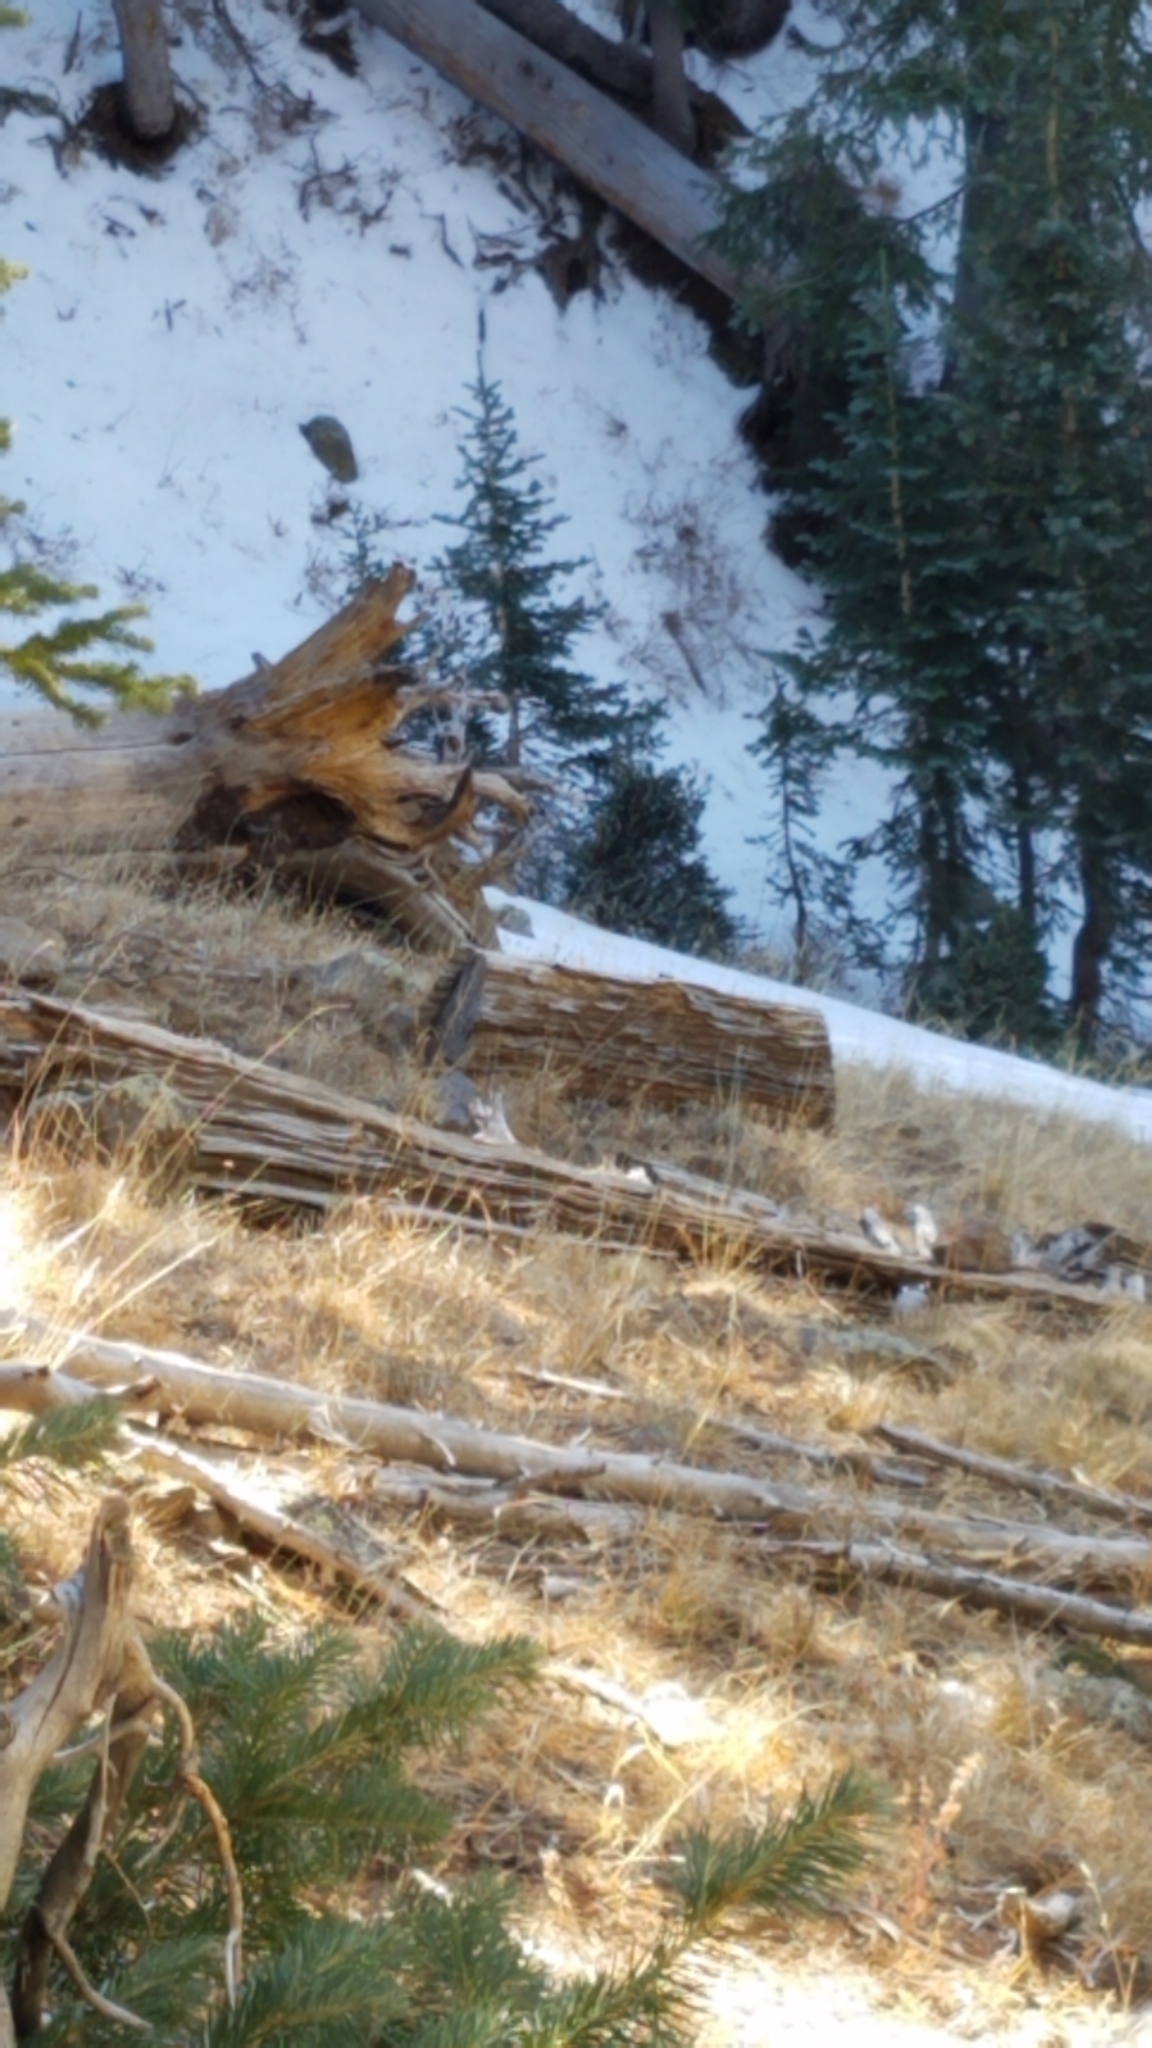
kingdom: Animalia
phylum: Chordata
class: Aves
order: Passeriformes
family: Corvidae
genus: Nucifraga
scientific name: Nucifraga columbiana
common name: Clark's nutcracker
